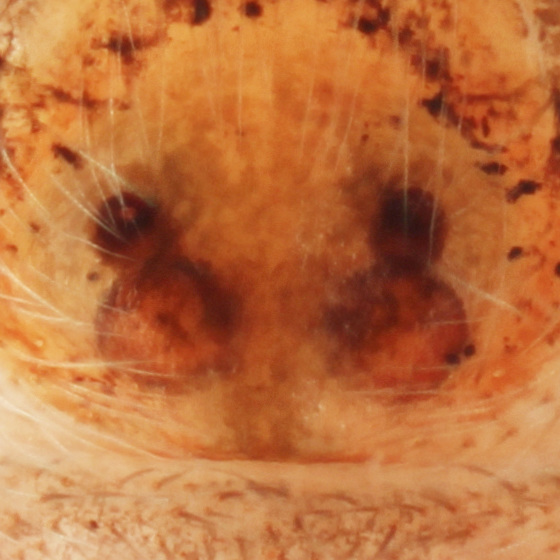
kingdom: Animalia
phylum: Arthropoda
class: Arachnida
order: Araneae
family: Salticidae
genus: Anasaitis
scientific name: Anasaitis canosa
